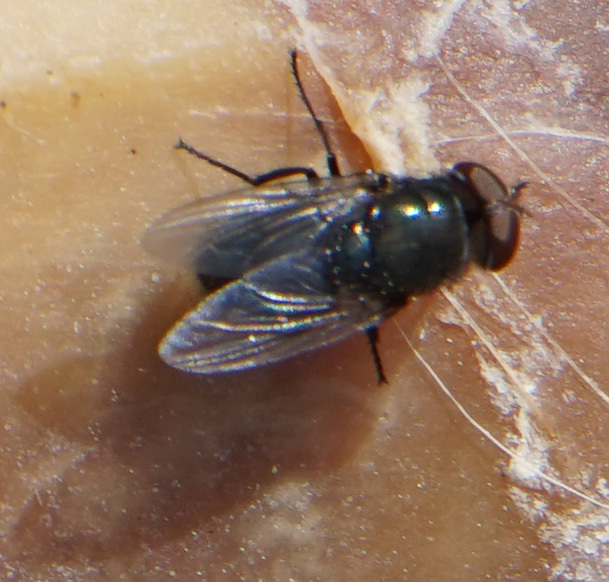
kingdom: Animalia
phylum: Arthropoda
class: Insecta
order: Diptera
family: Calliphoridae
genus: Phormia
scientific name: Phormia regina
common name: Black blow fly
